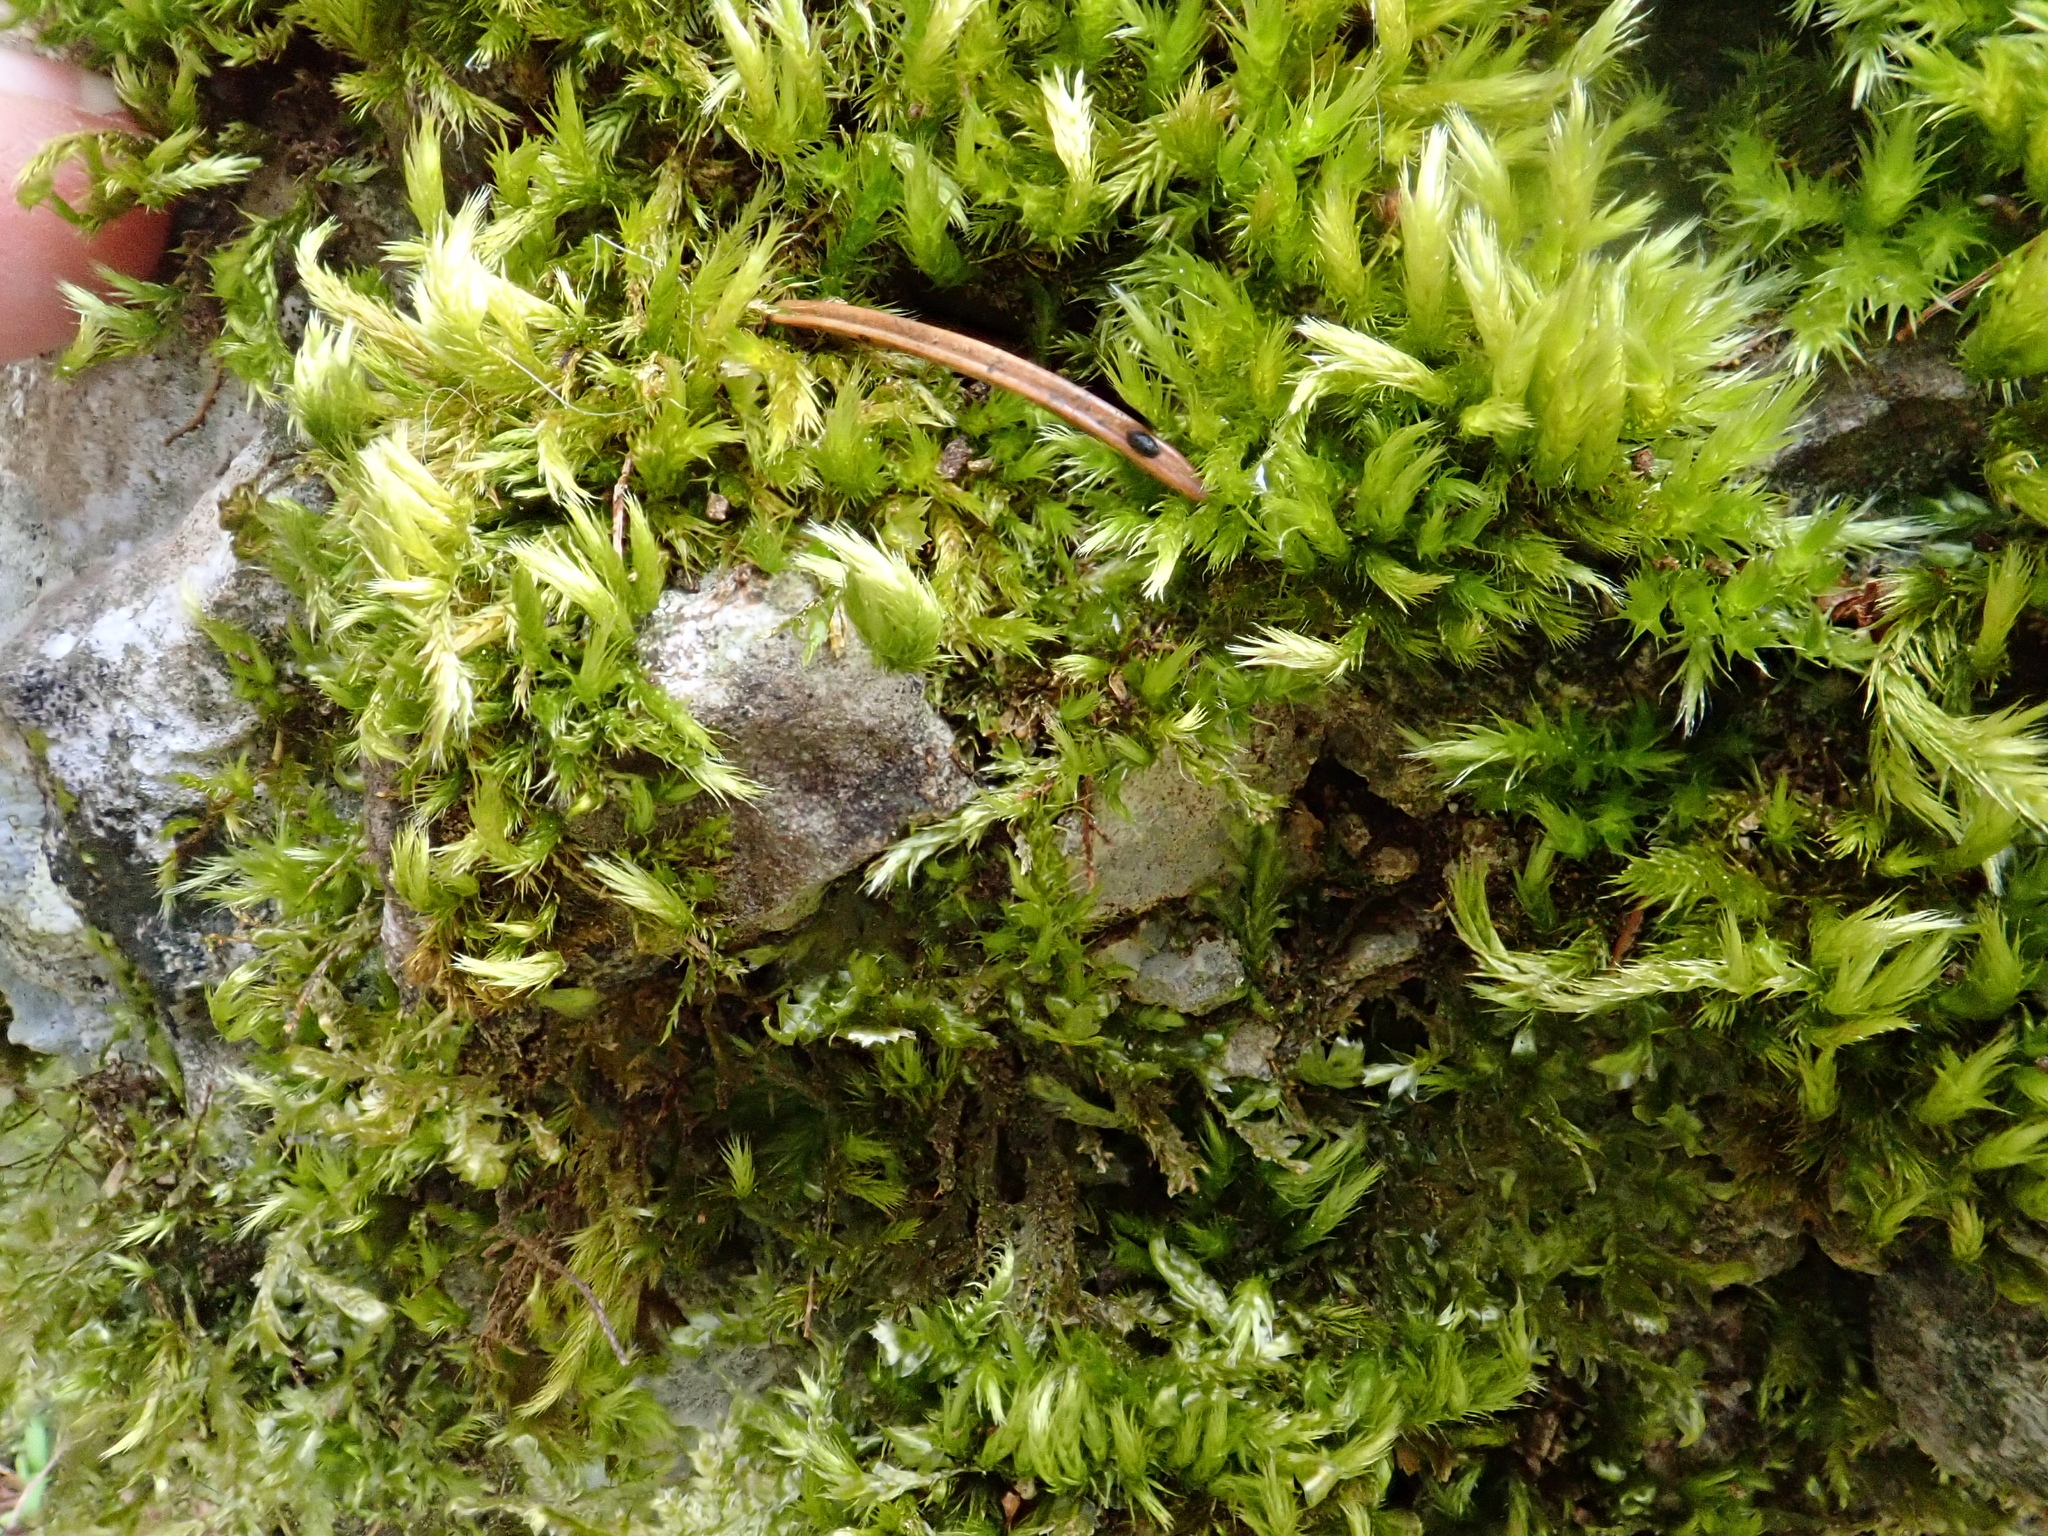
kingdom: Plantae
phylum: Bryophyta
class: Bryopsida
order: Hypnales
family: Brachytheciaceae
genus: Homalothecium
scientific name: Homalothecium sericeum
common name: Silky wall feather-moss
